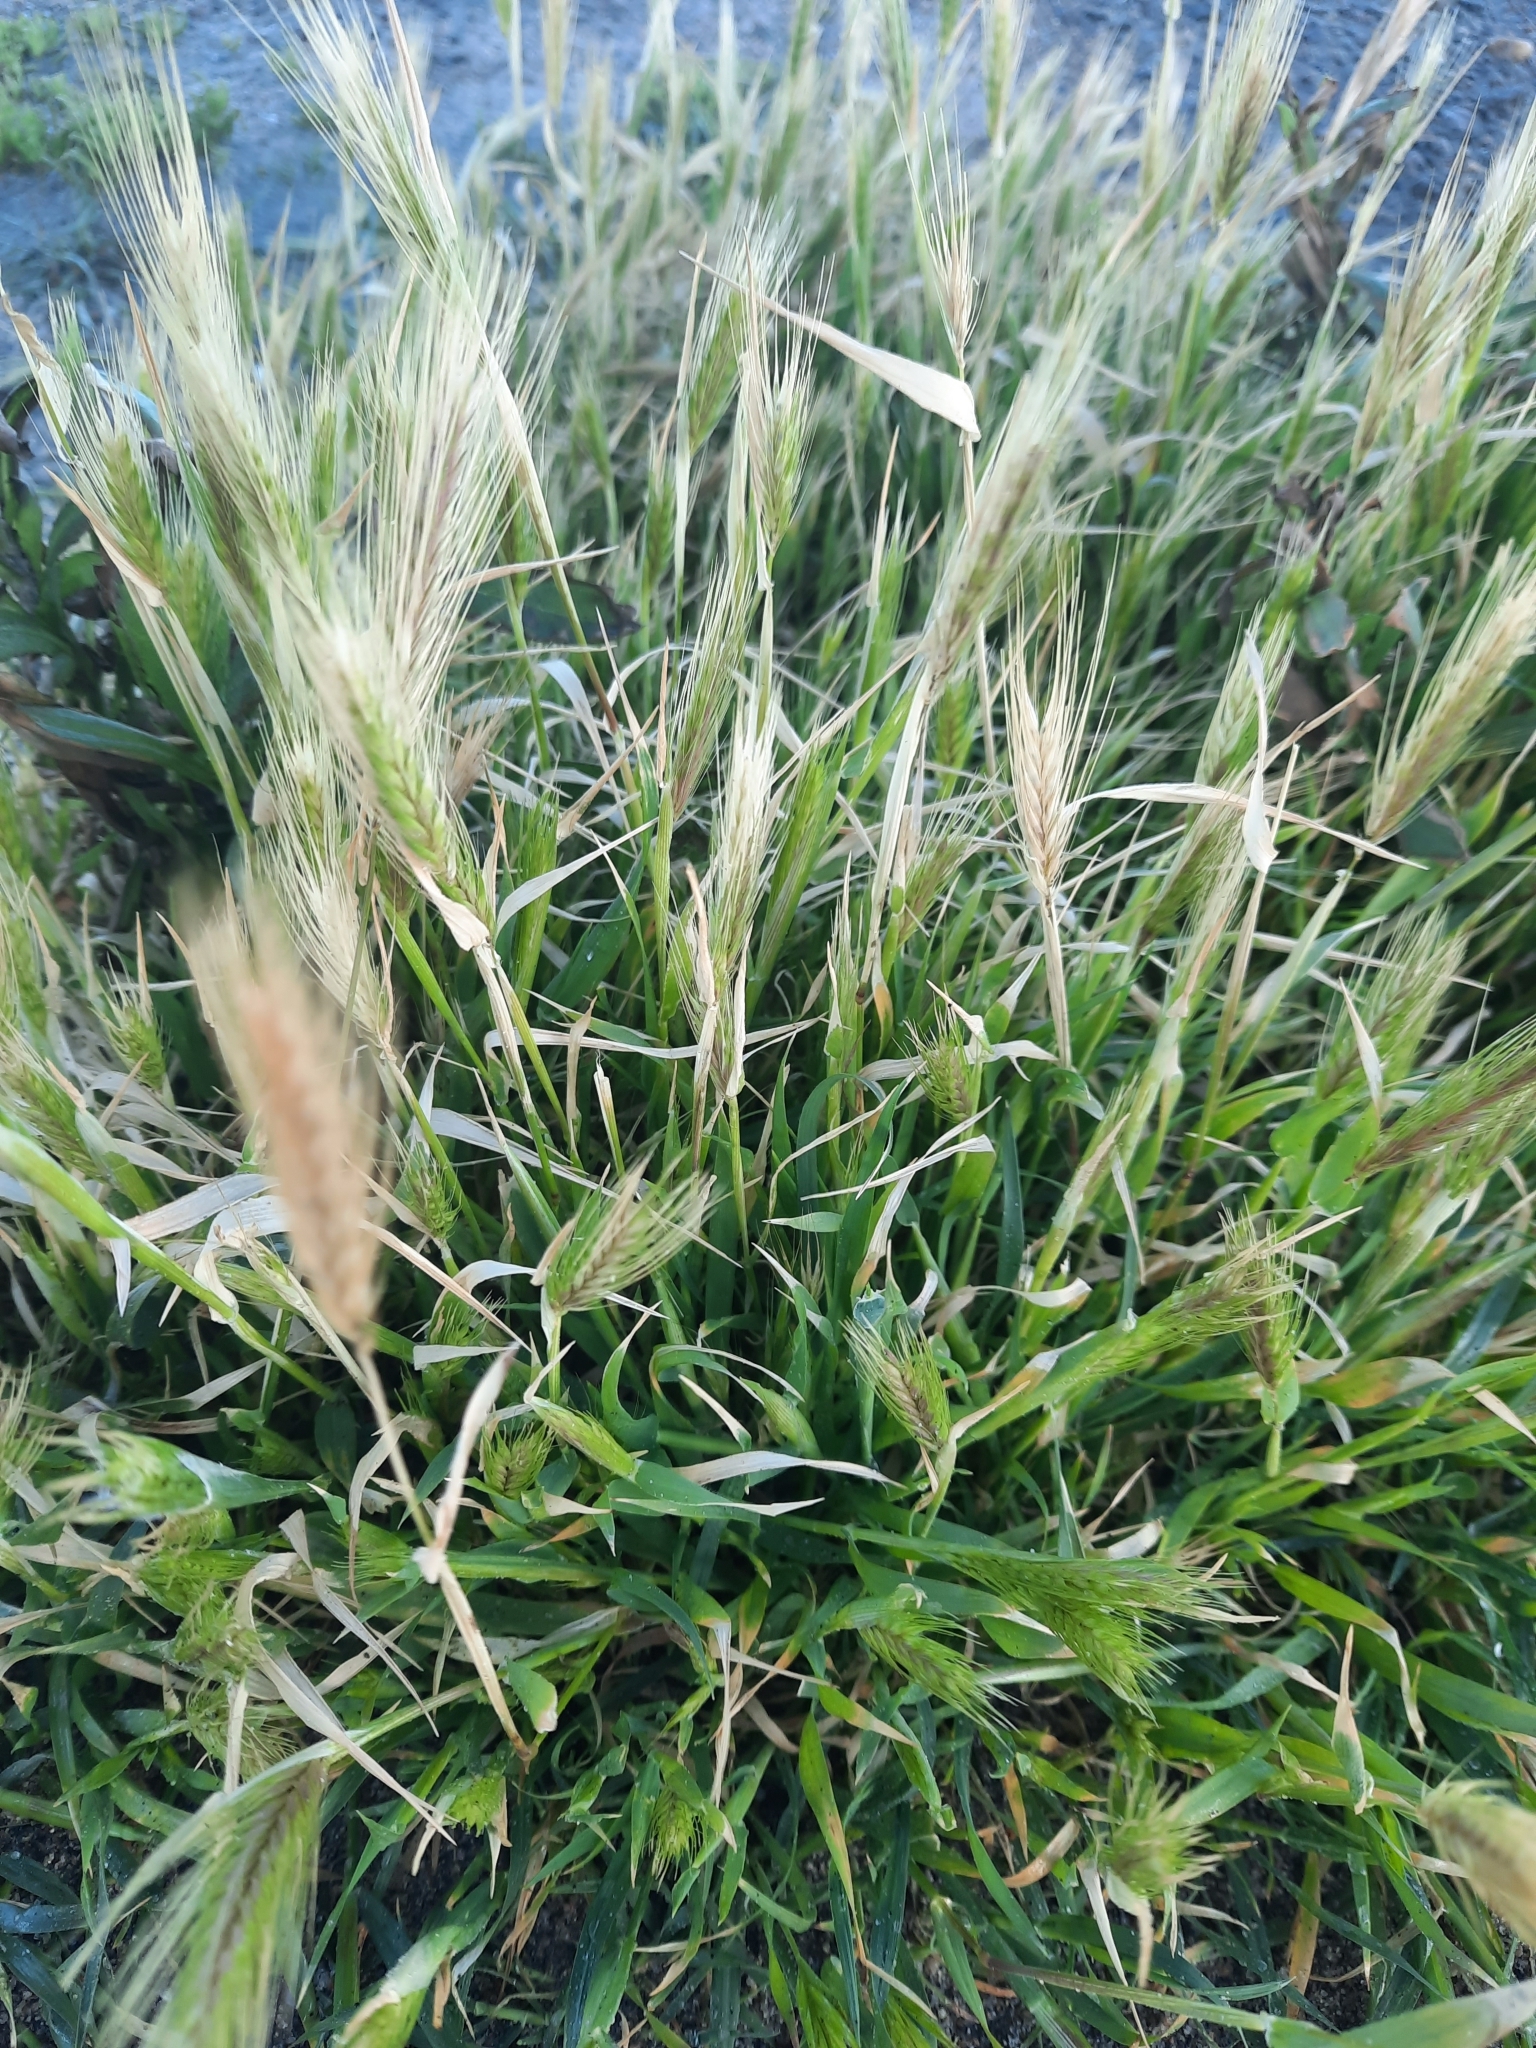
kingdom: Plantae
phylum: Tracheophyta
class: Liliopsida
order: Poales
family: Poaceae
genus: Hordeum
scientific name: Hordeum murinum
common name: Wall barley
